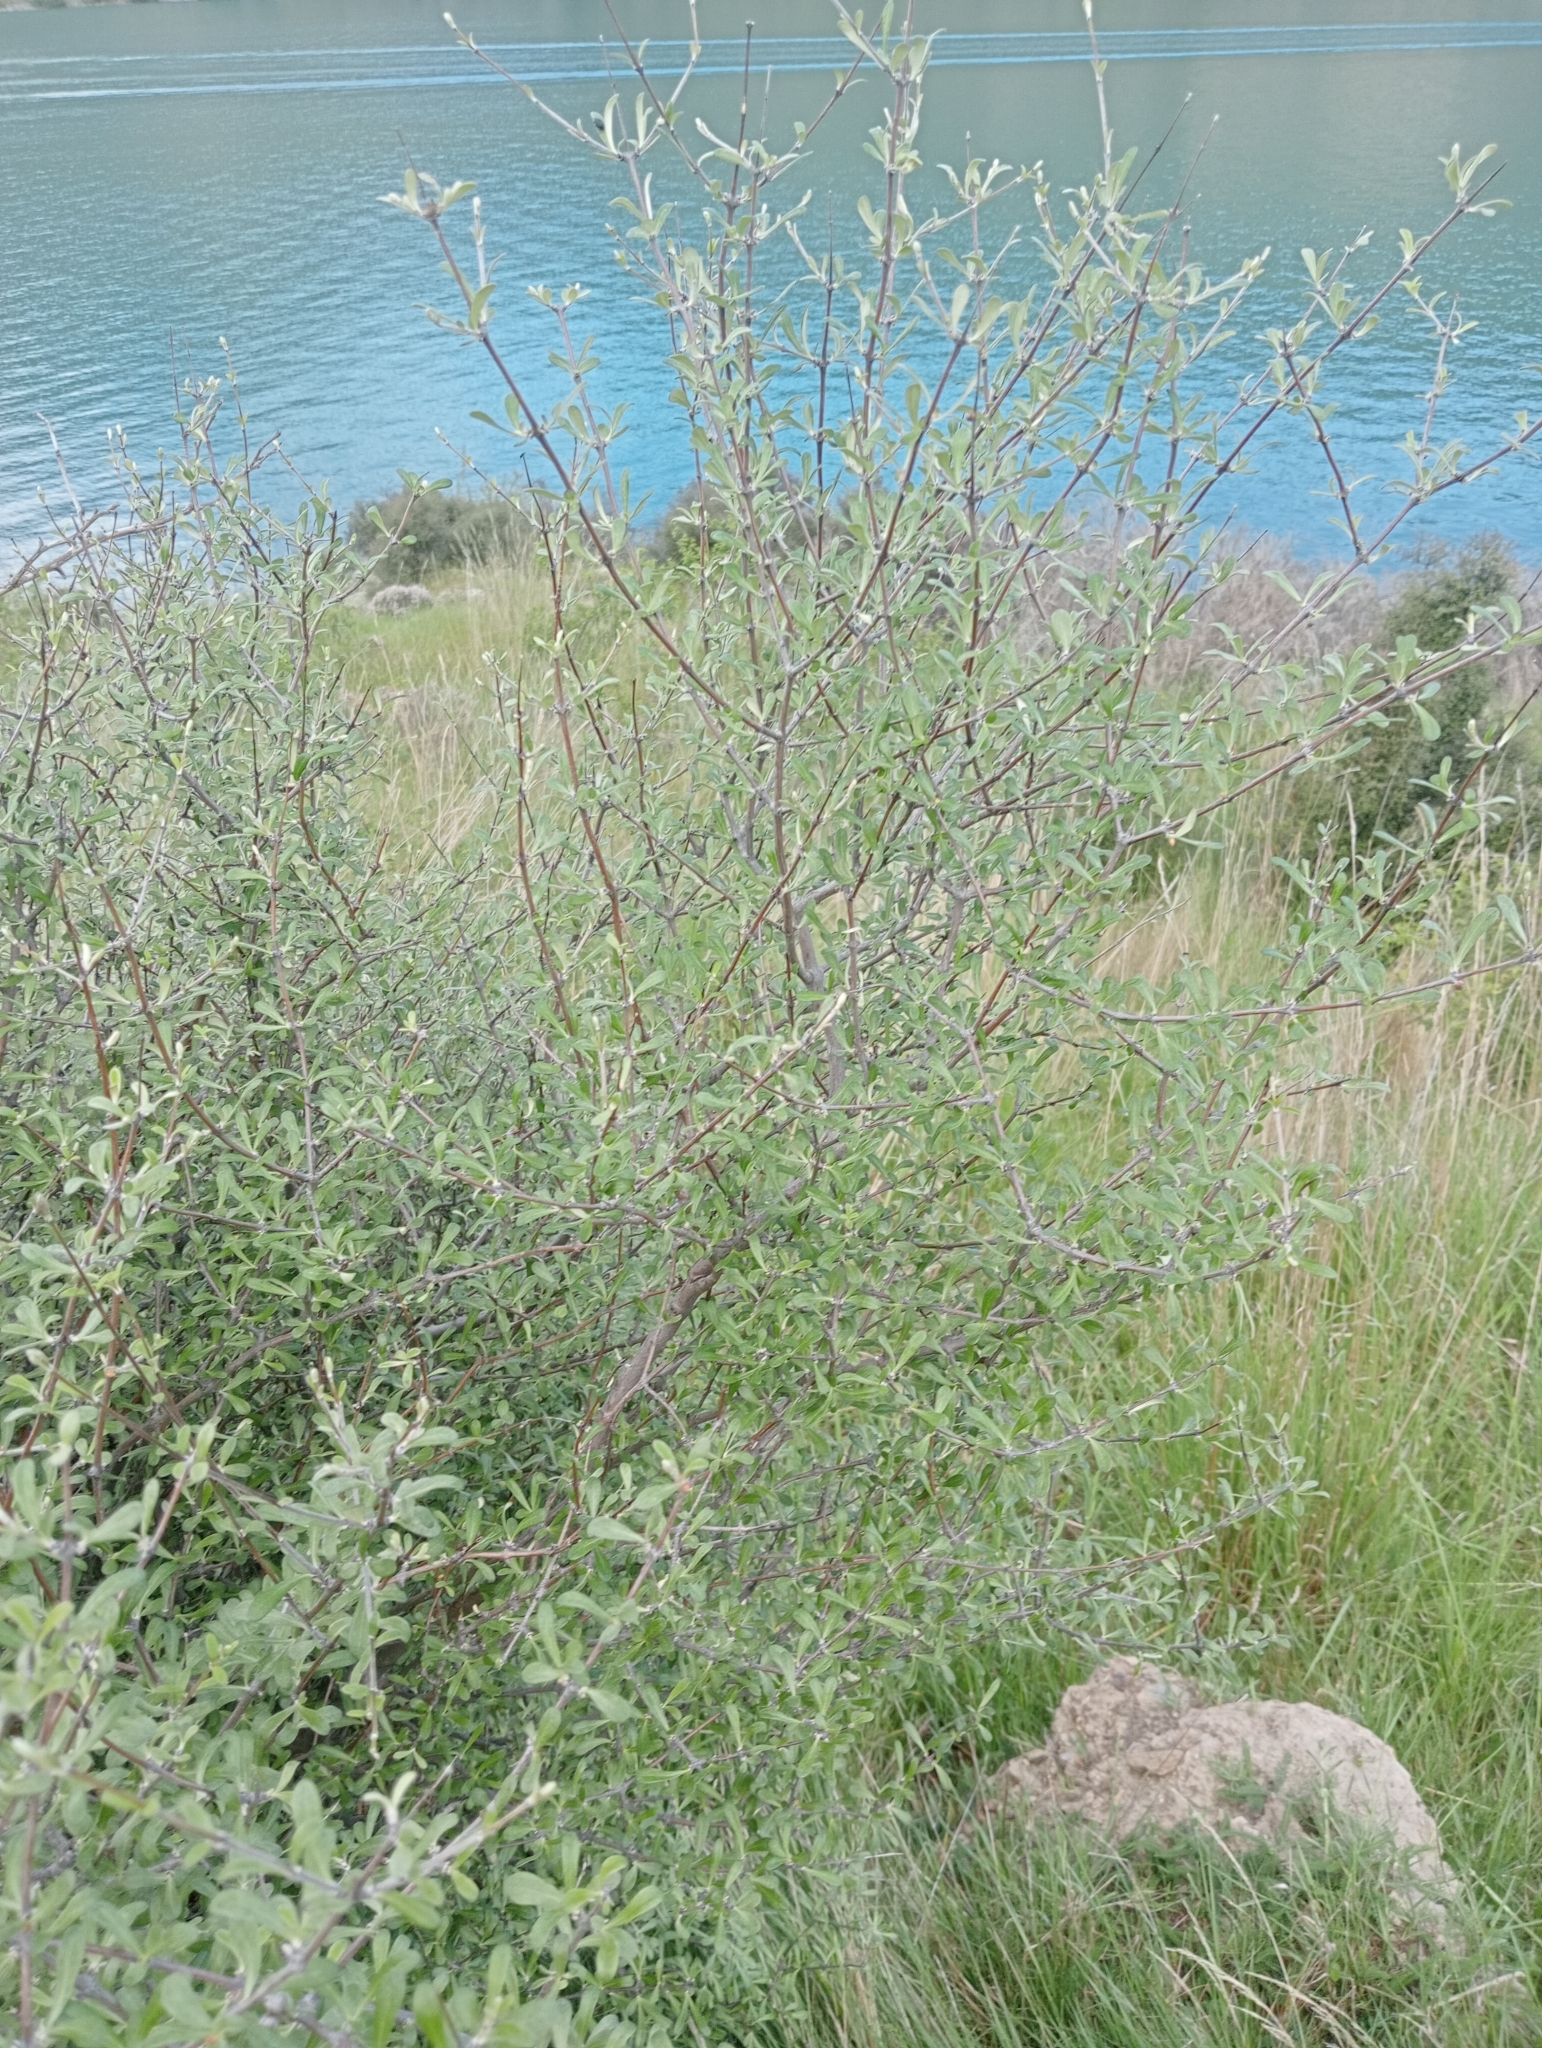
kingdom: Plantae
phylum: Tracheophyta
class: Magnoliopsida
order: Asterales
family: Asteraceae
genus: Olearia
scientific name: Olearia odorata
